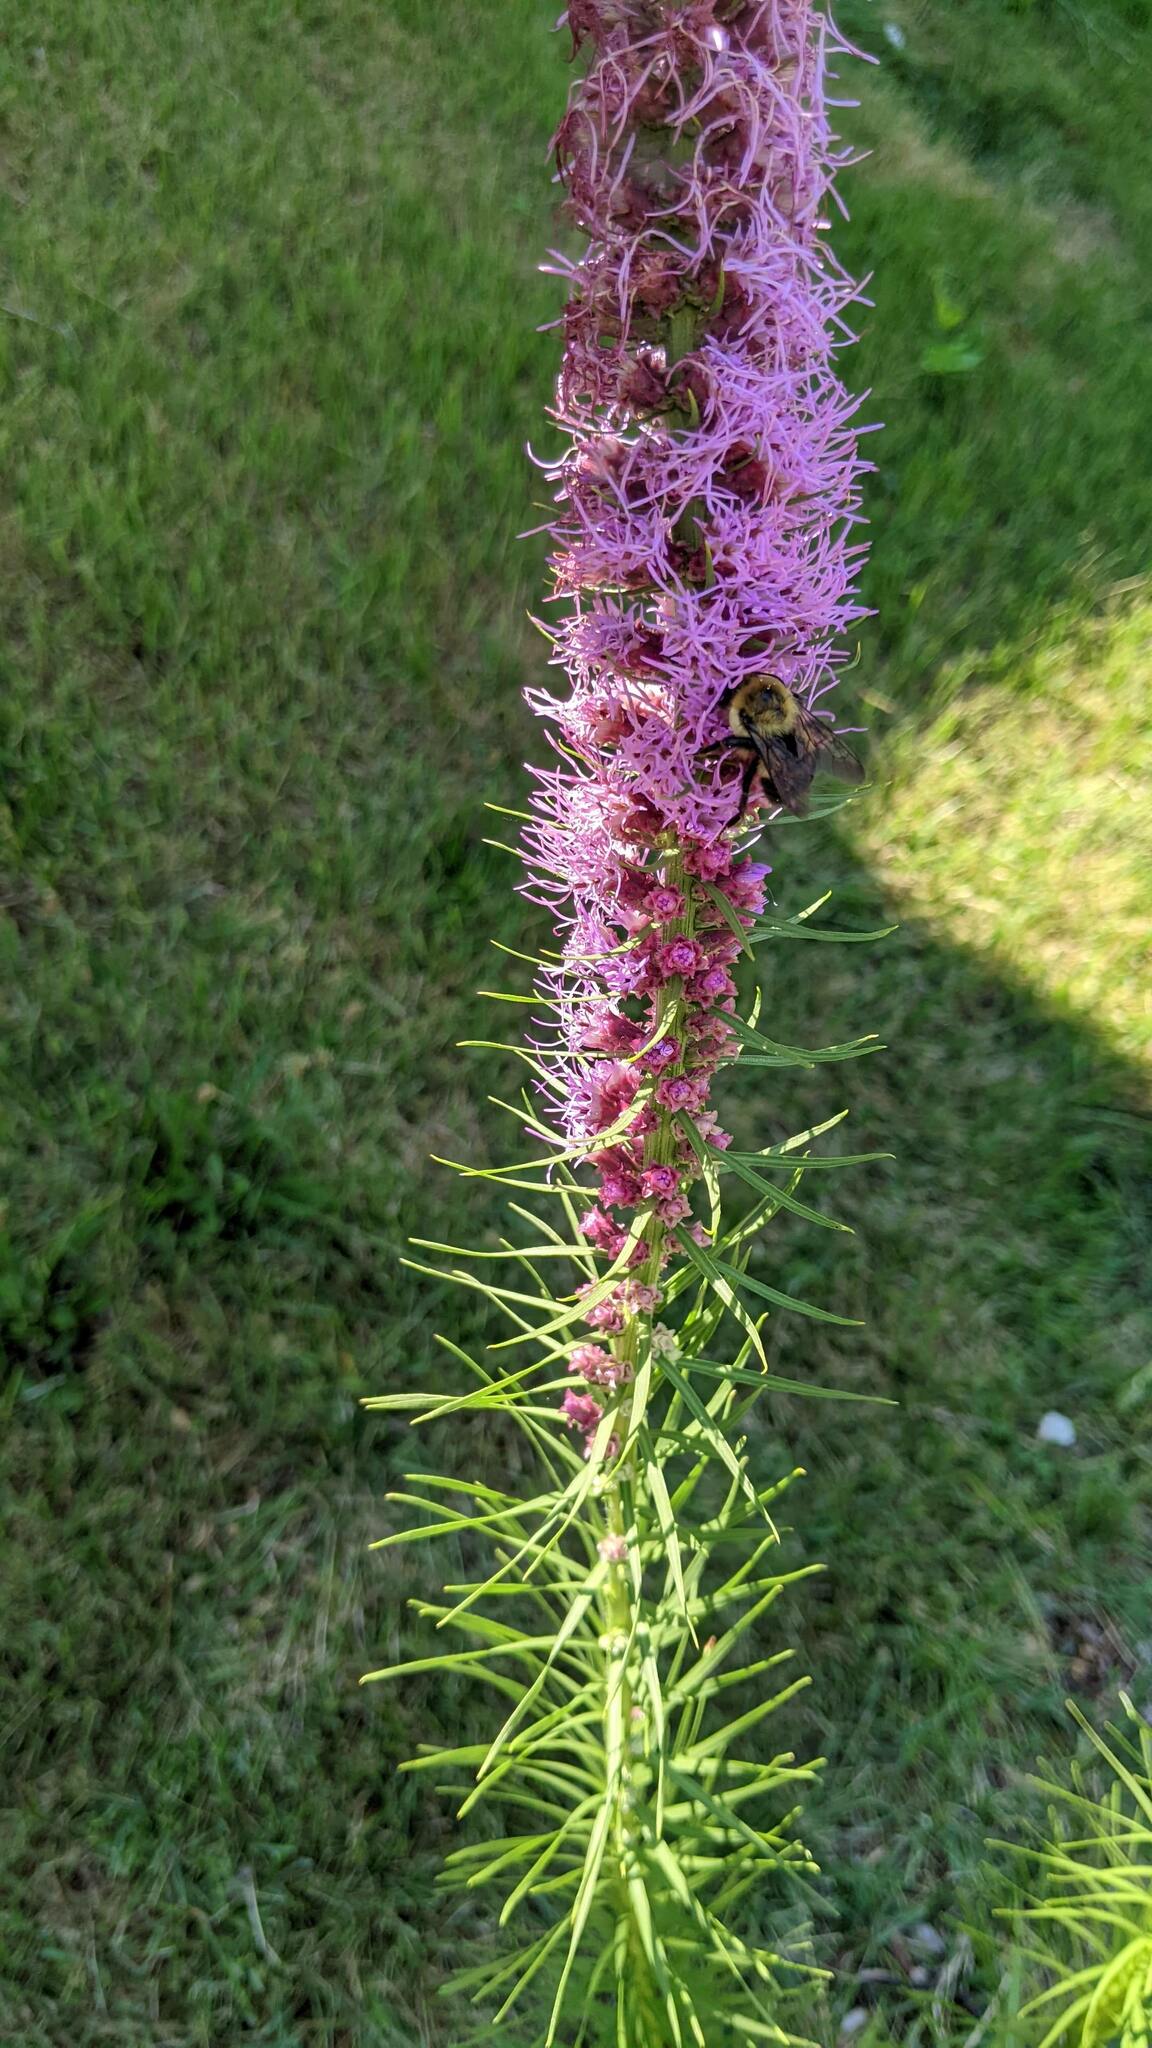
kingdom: Animalia
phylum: Arthropoda
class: Insecta
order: Hymenoptera
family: Apidae
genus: Bombus
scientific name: Bombus griseocollis
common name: Brown-belted bumble bee
